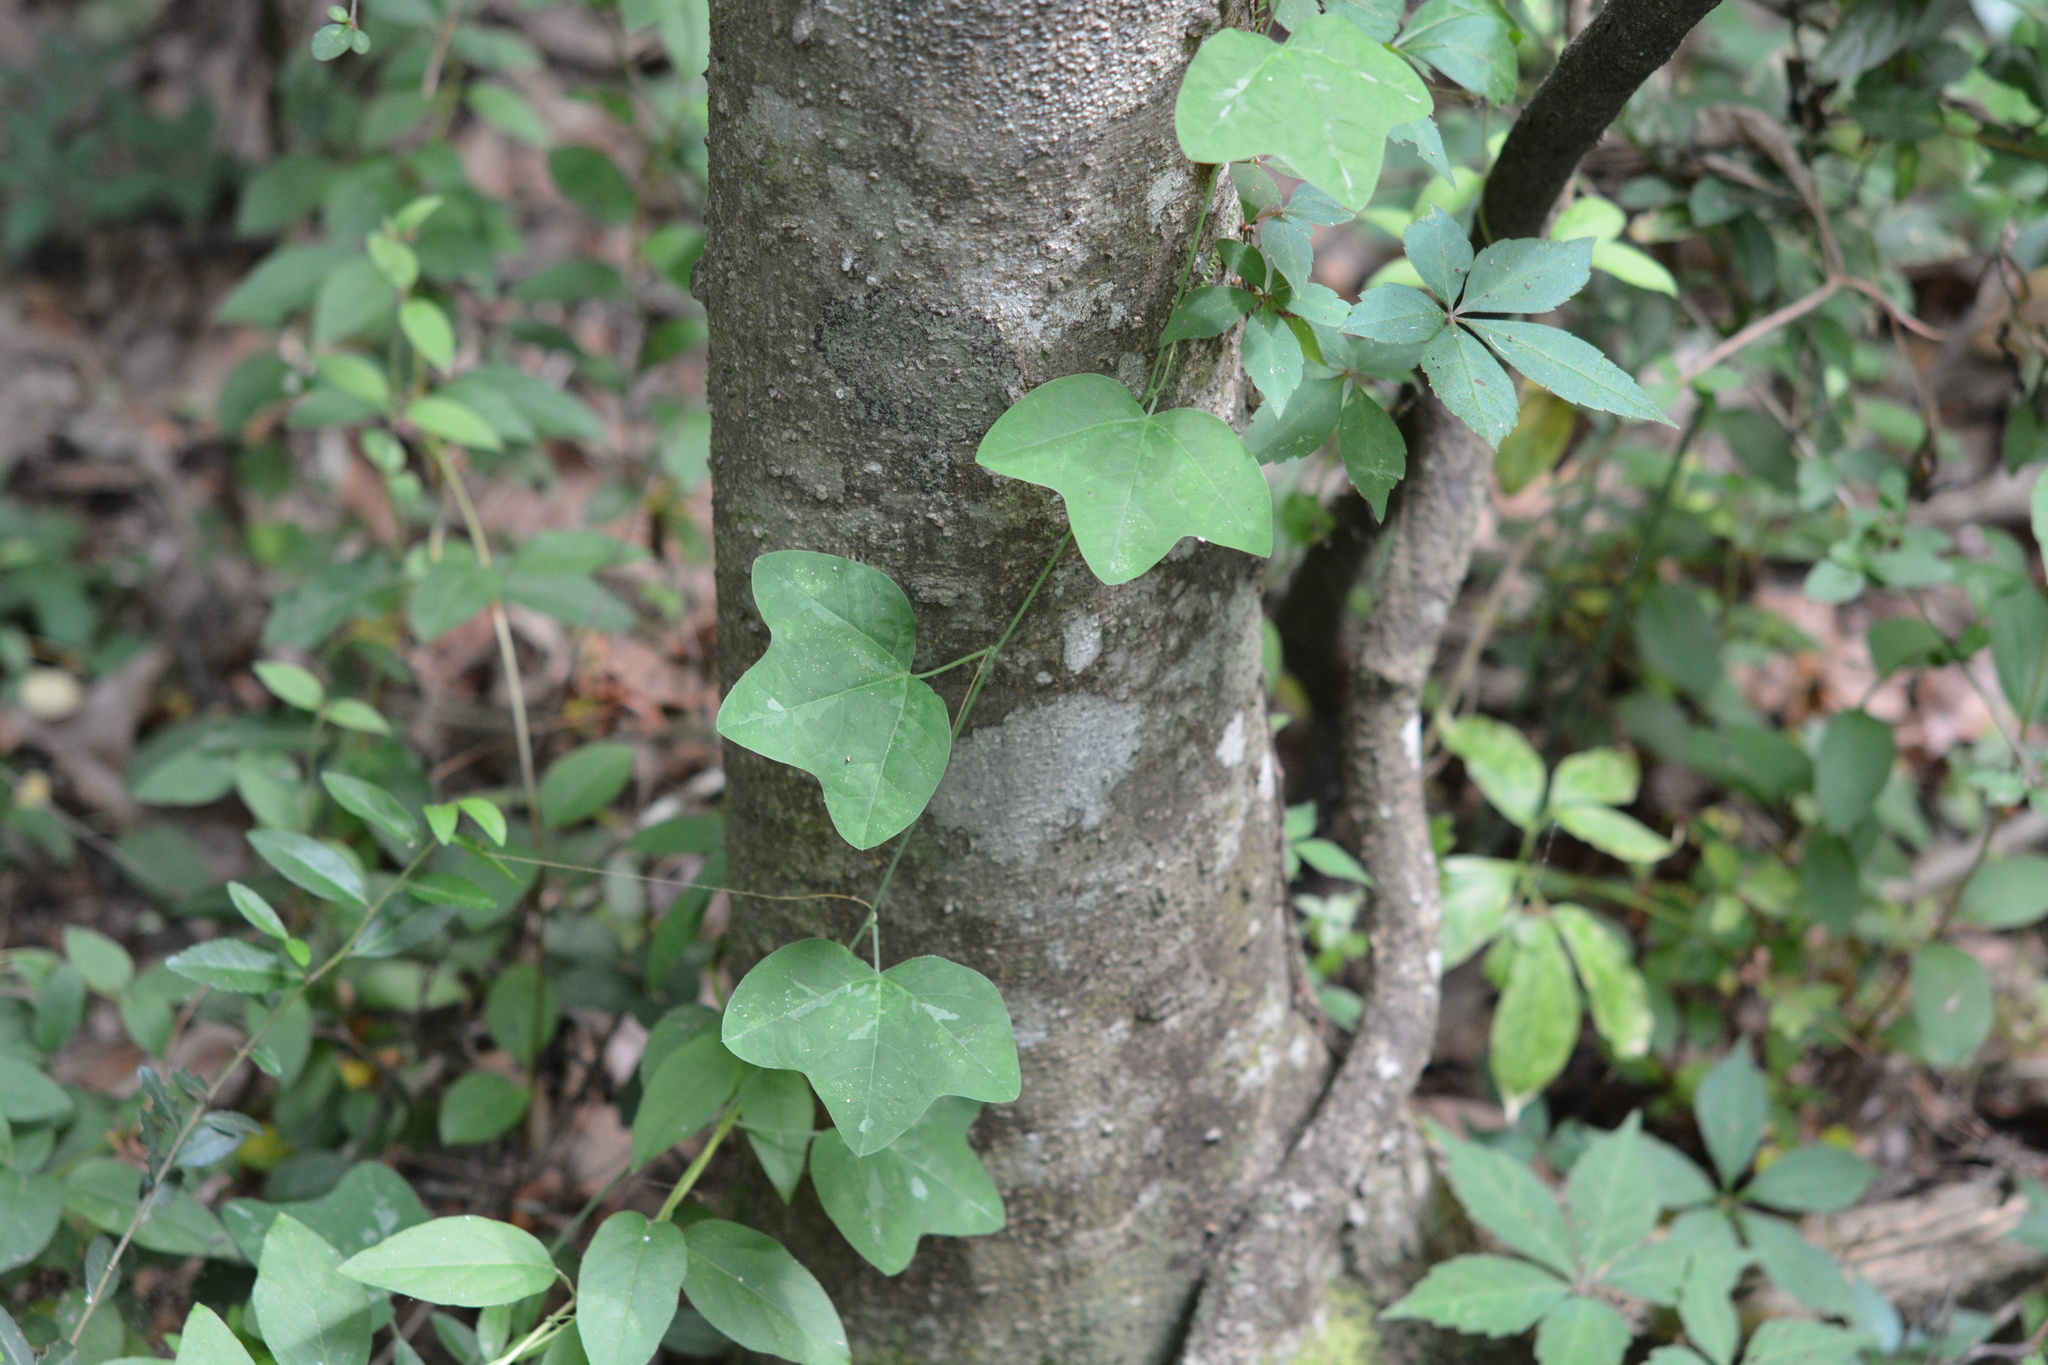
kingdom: Plantae
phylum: Tracheophyta
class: Magnoliopsida
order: Malpighiales
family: Passifloraceae
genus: Passiflora
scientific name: Passiflora lutea
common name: Yellow passionflower
